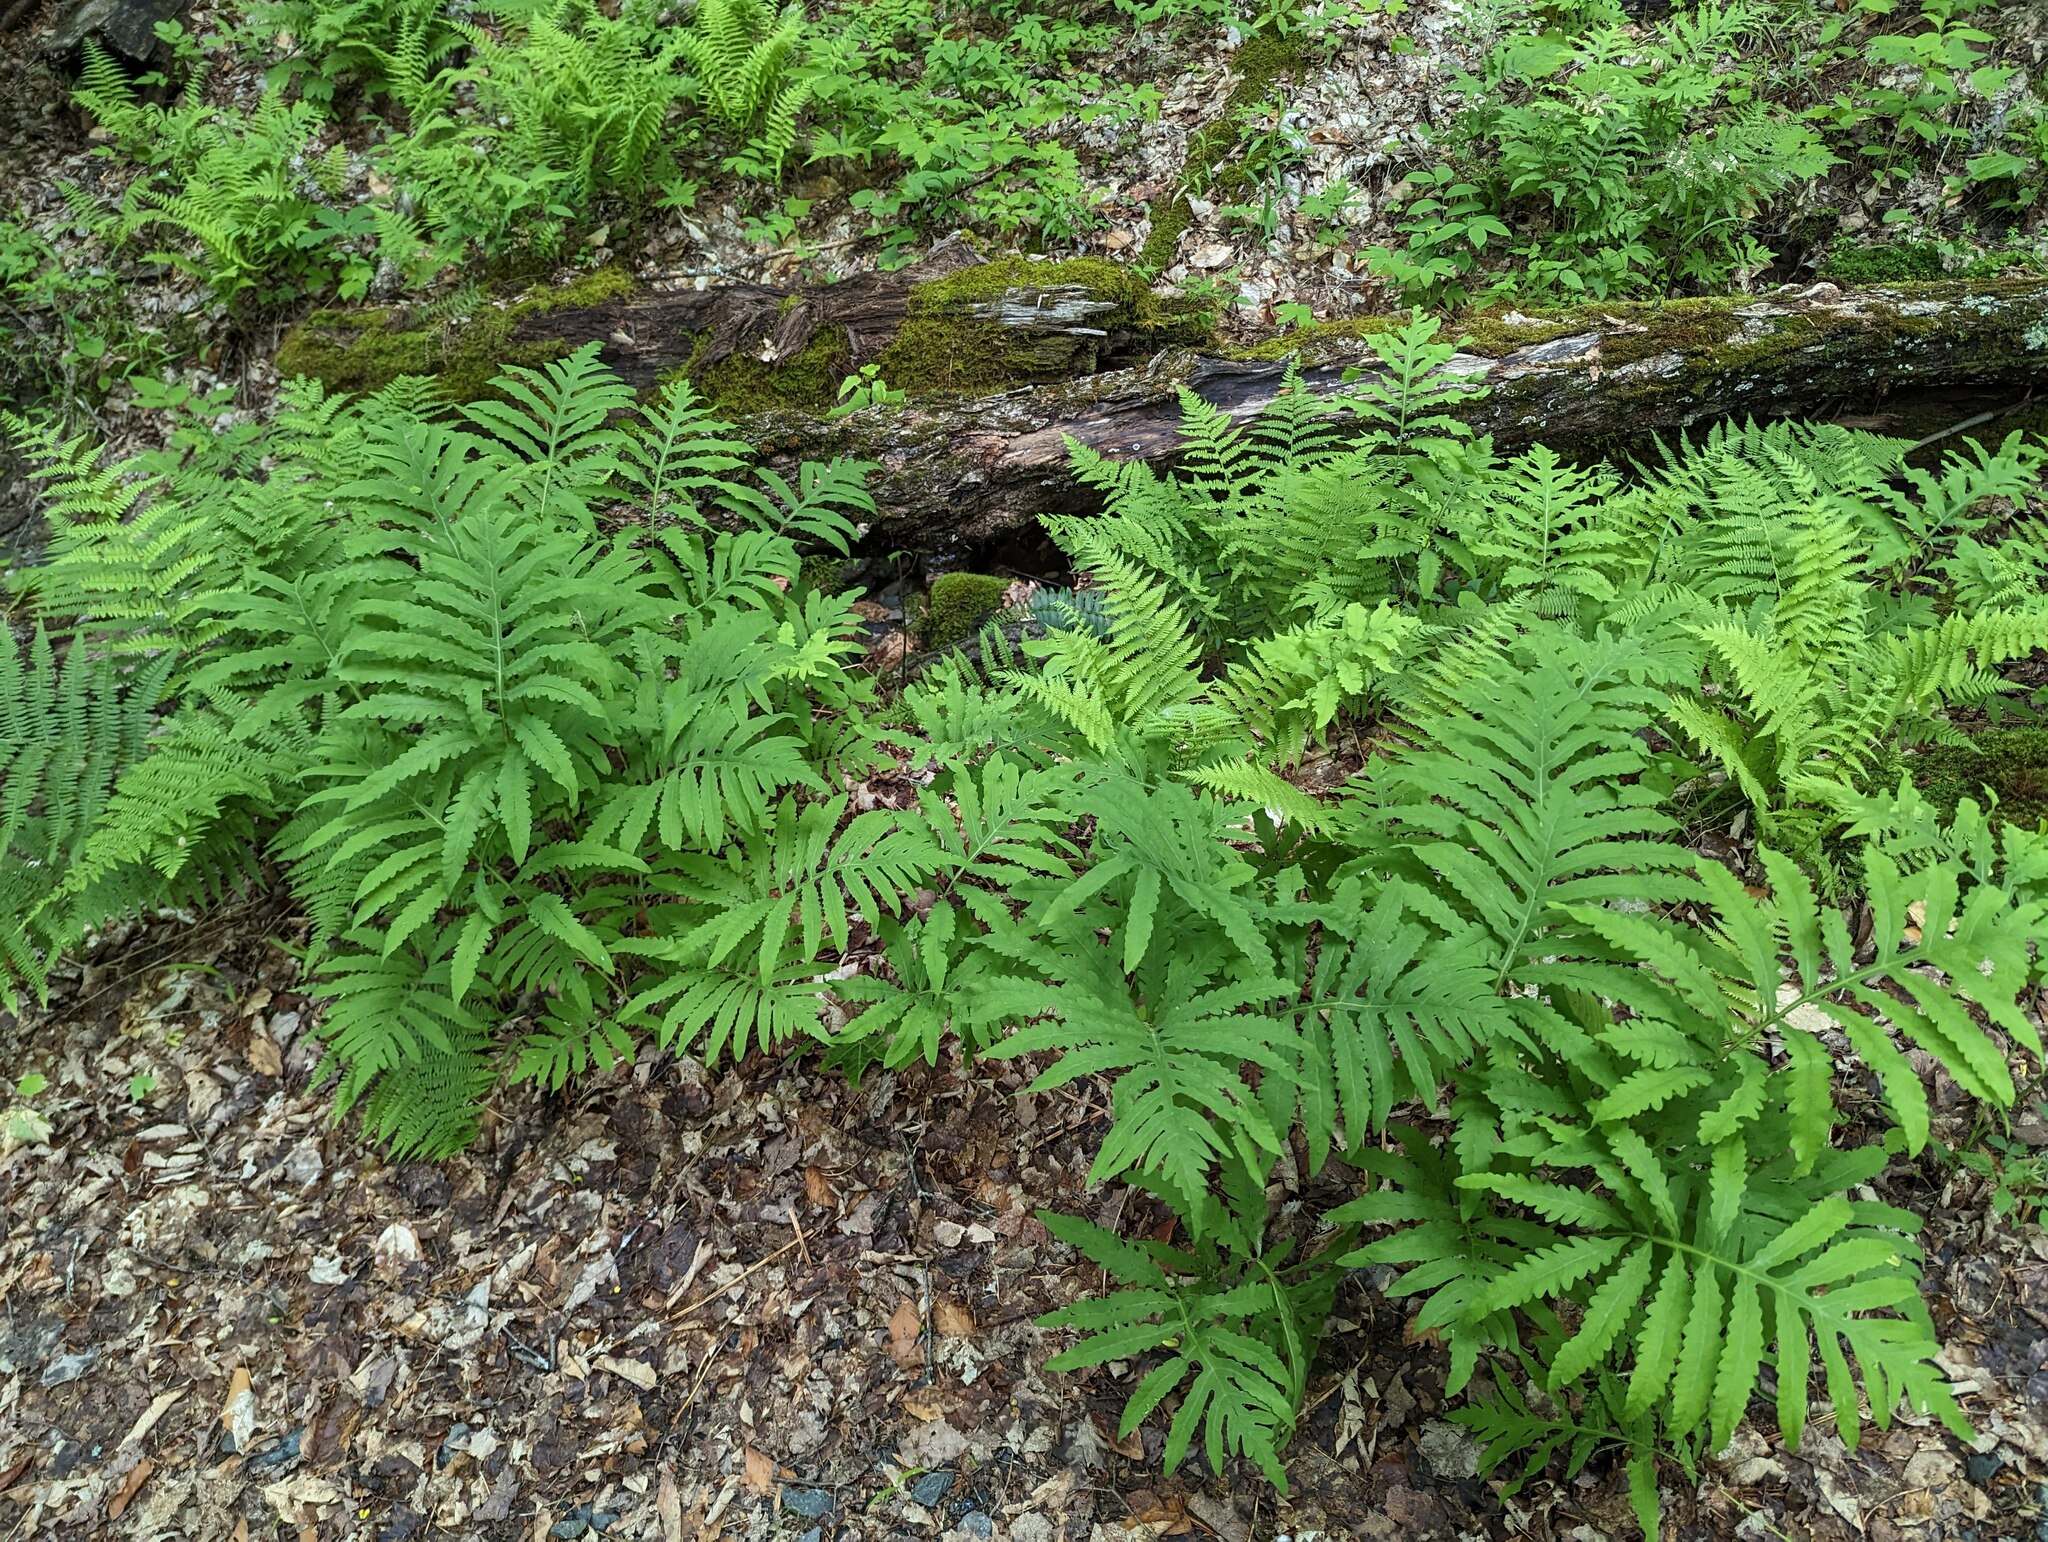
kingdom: Plantae
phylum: Tracheophyta
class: Polypodiopsida
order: Polypodiales
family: Onocleaceae
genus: Onoclea
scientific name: Onoclea sensibilis
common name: Sensitive fern
